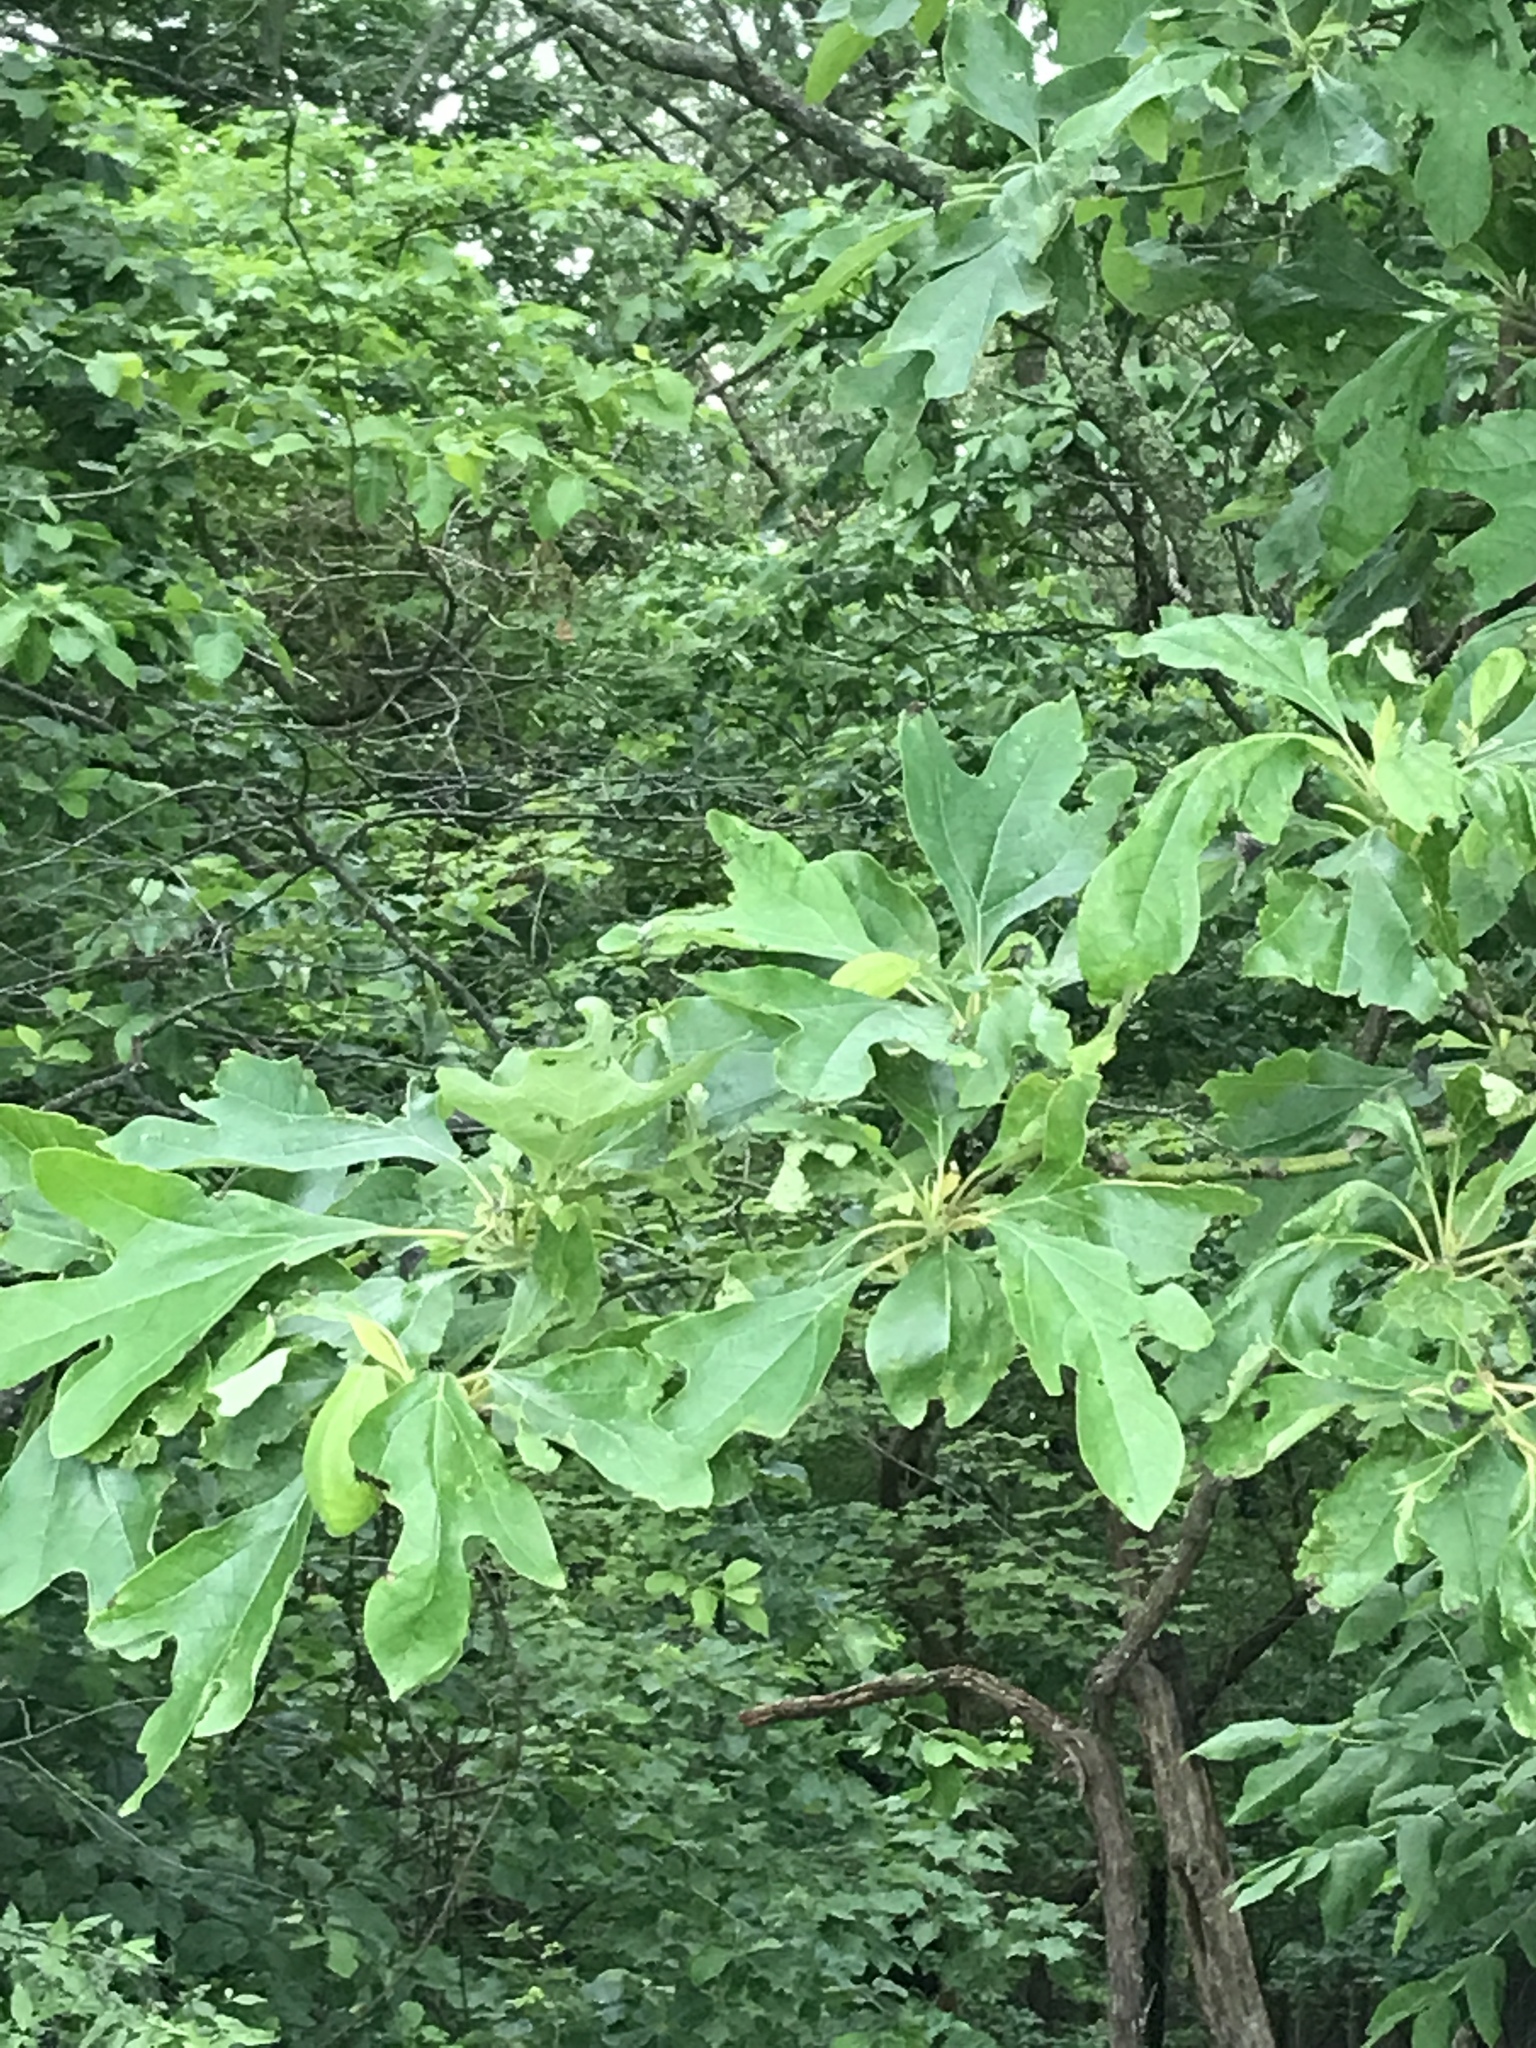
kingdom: Plantae
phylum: Tracheophyta
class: Magnoliopsida
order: Laurales
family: Lauraceae
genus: Sassafras
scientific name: Sassafras albidum
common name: Sassafras
